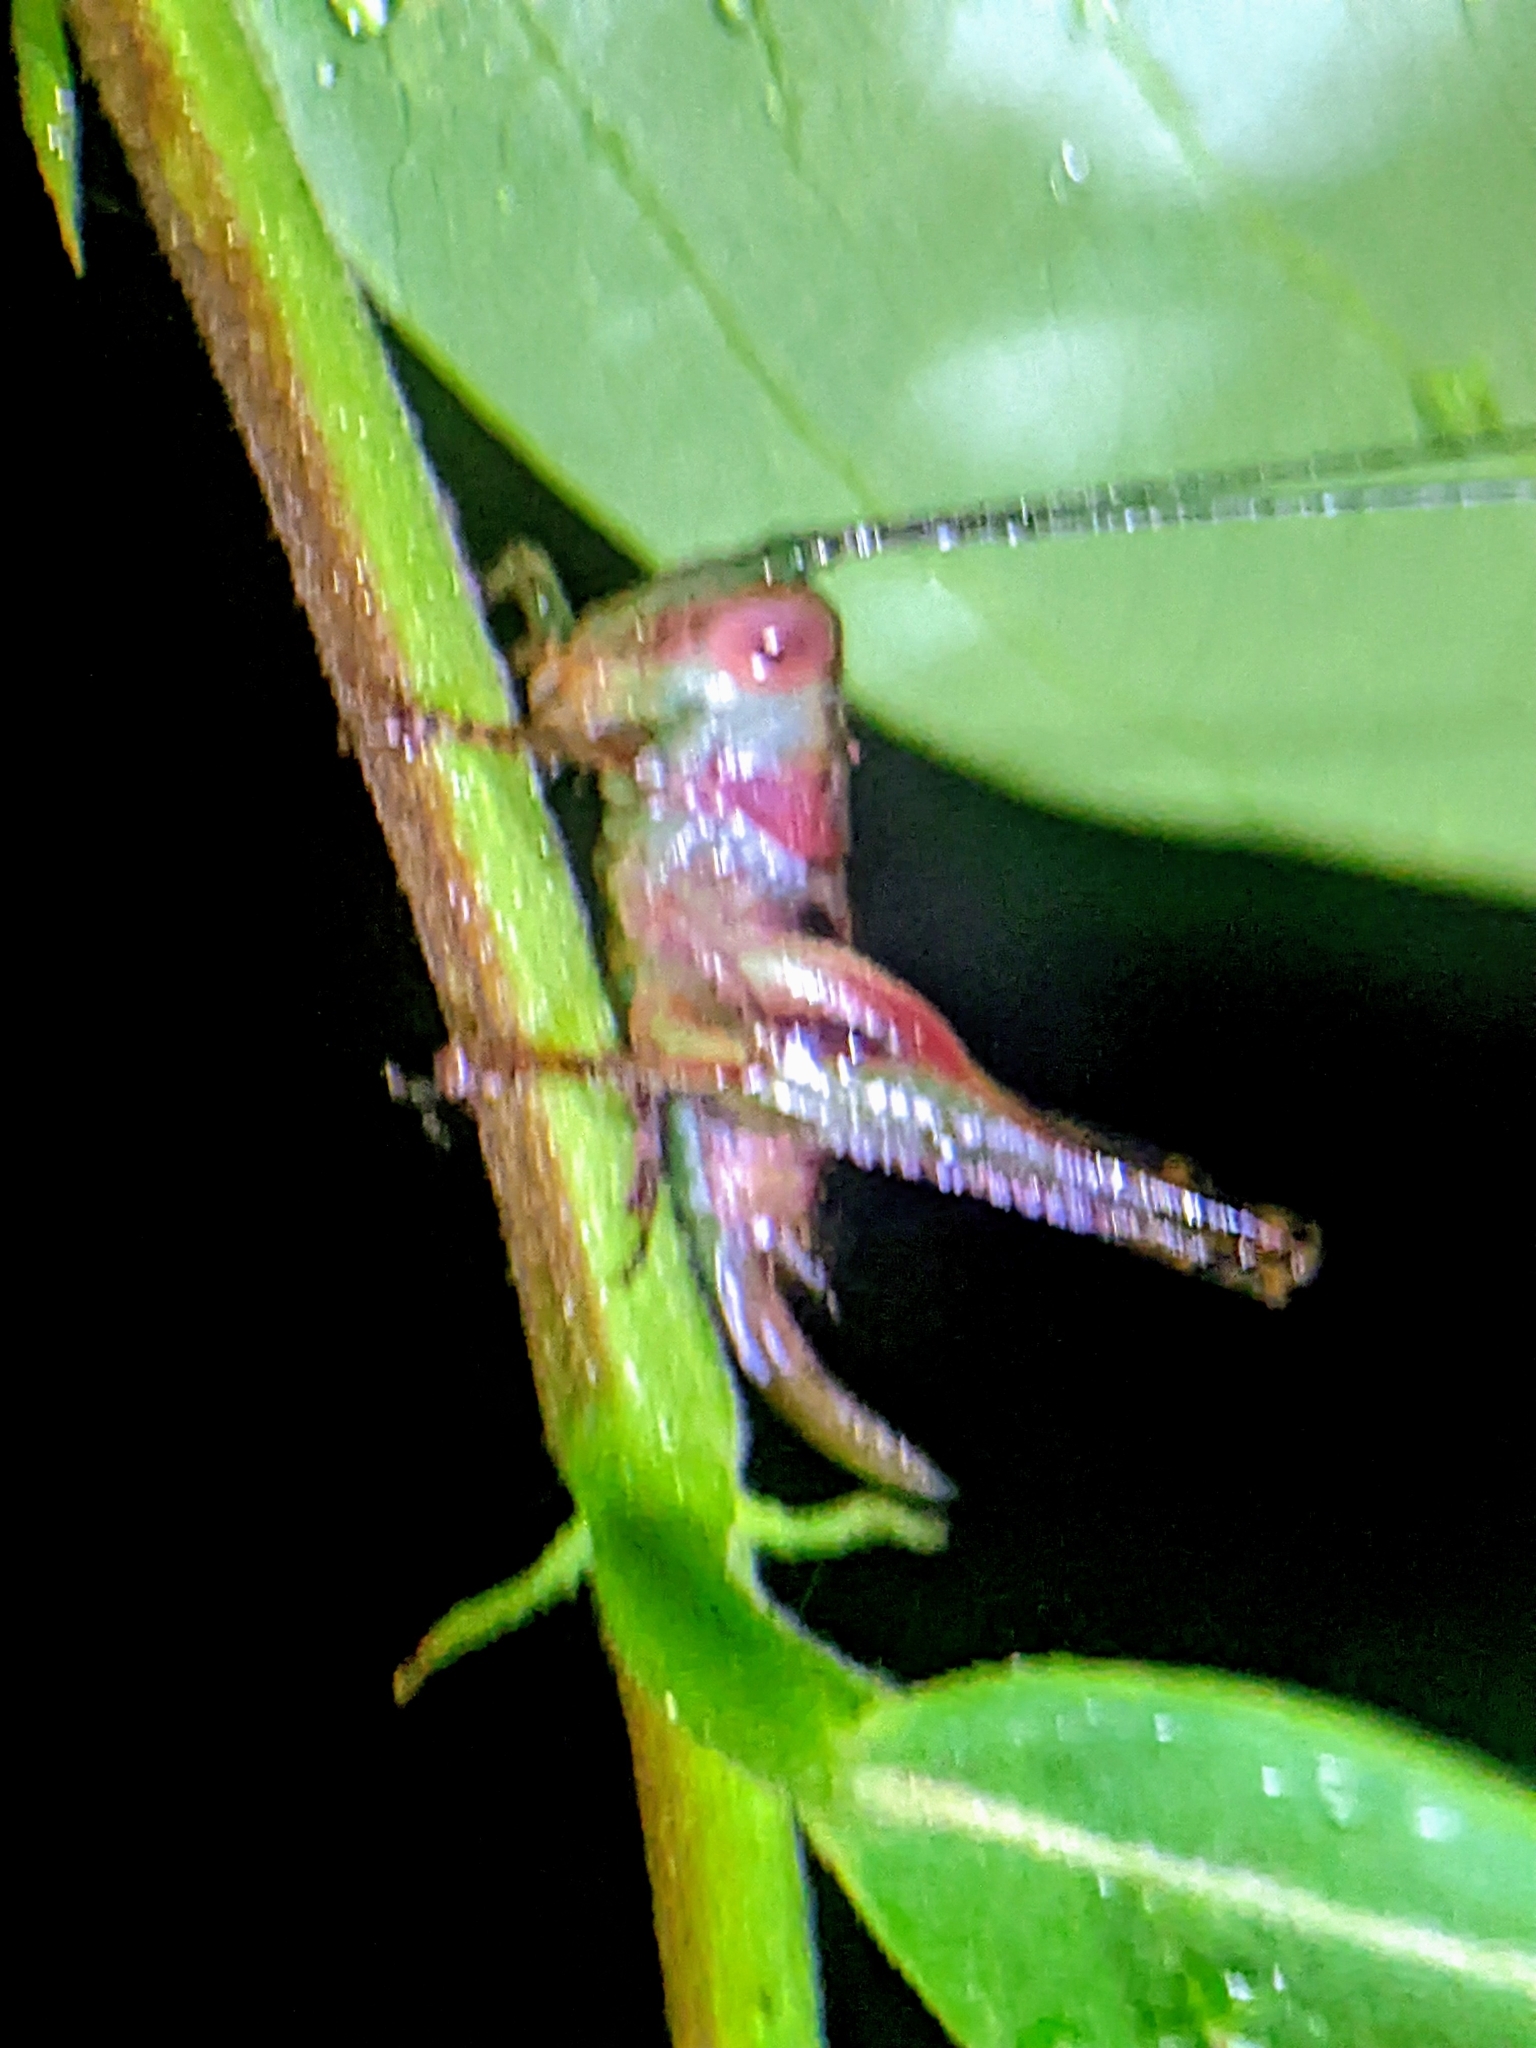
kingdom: Animalia
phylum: Arthropoda
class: Insecta
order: Orthoptera
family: Tettigoniidae
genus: Lipotactes
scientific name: Lipotactes virescens
